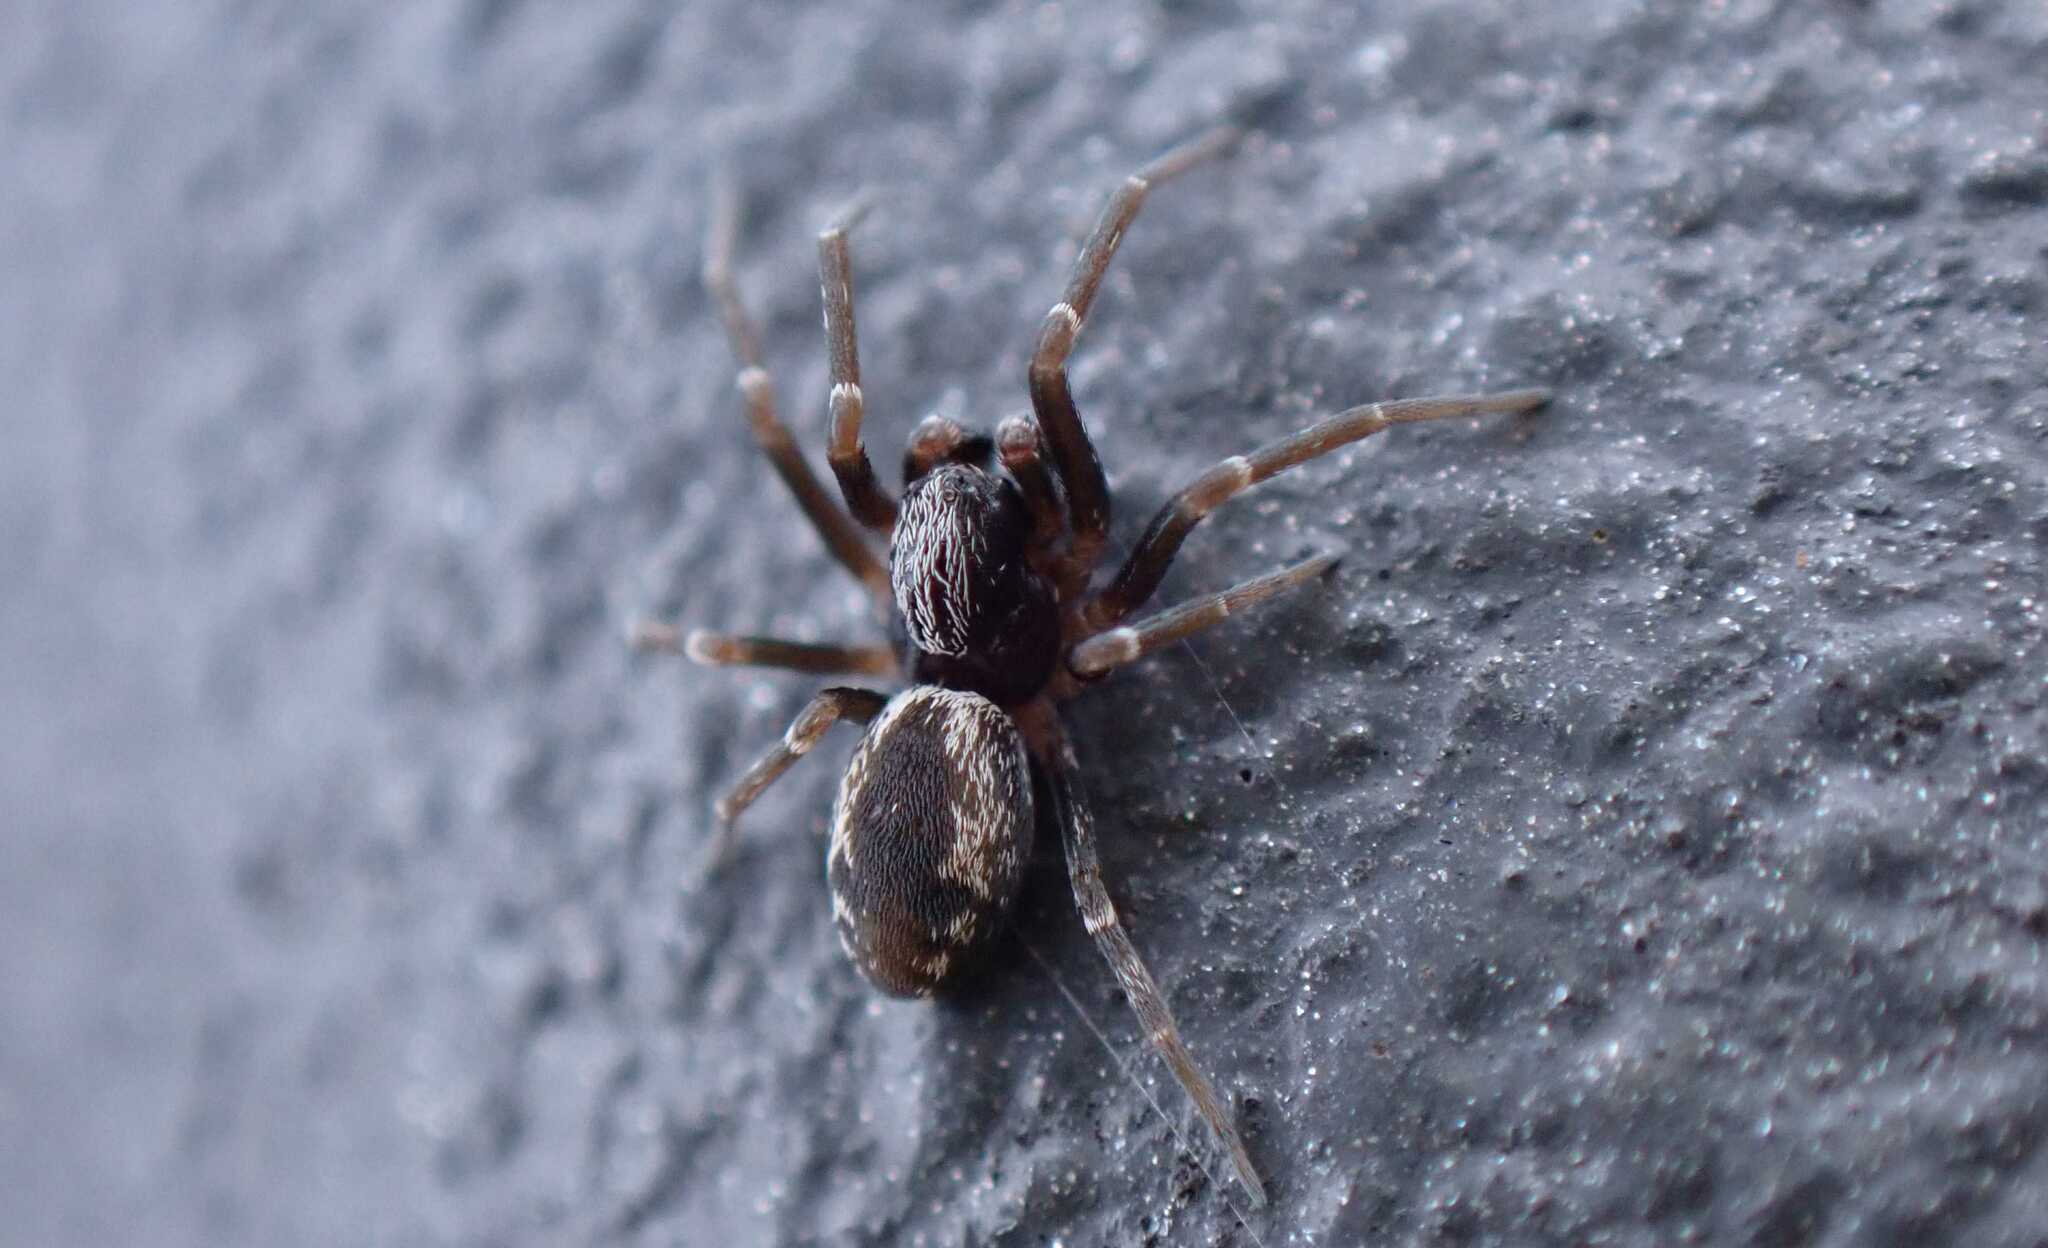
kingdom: Animalia
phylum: Arthropoda
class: Arachnida
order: Araneae
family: Dictynidae
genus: Brigittea
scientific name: Brigittea civica
